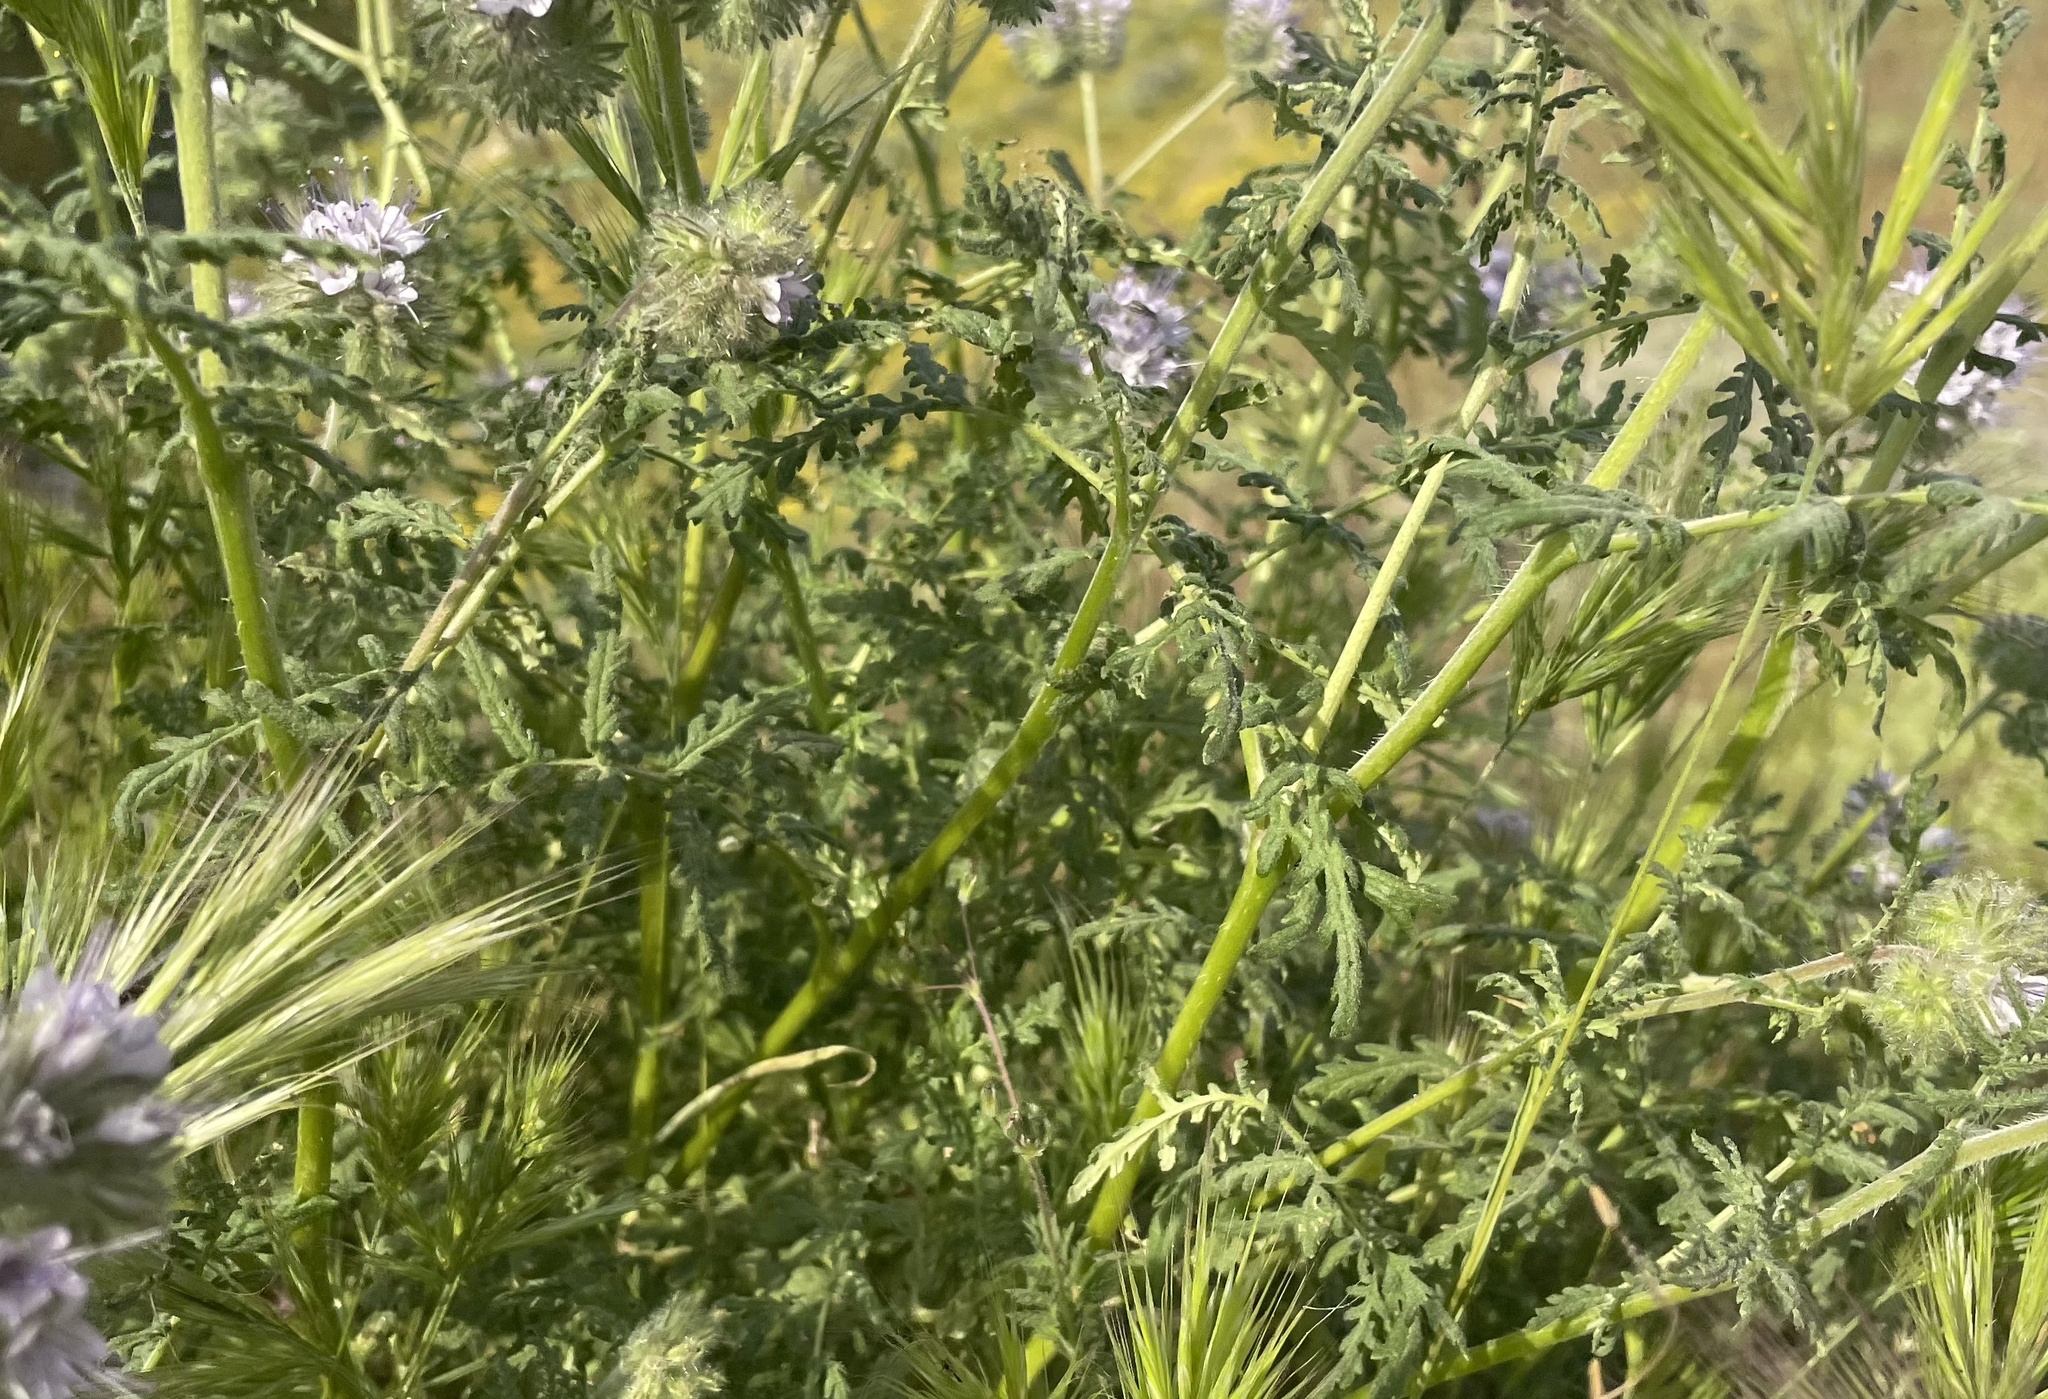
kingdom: Plantae
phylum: Tracheophyta
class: Magnoliopsida
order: Boraginales
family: Hydrophyllaceae
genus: Phacelia
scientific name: Phacelia tanacetifolia
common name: Phacelia
